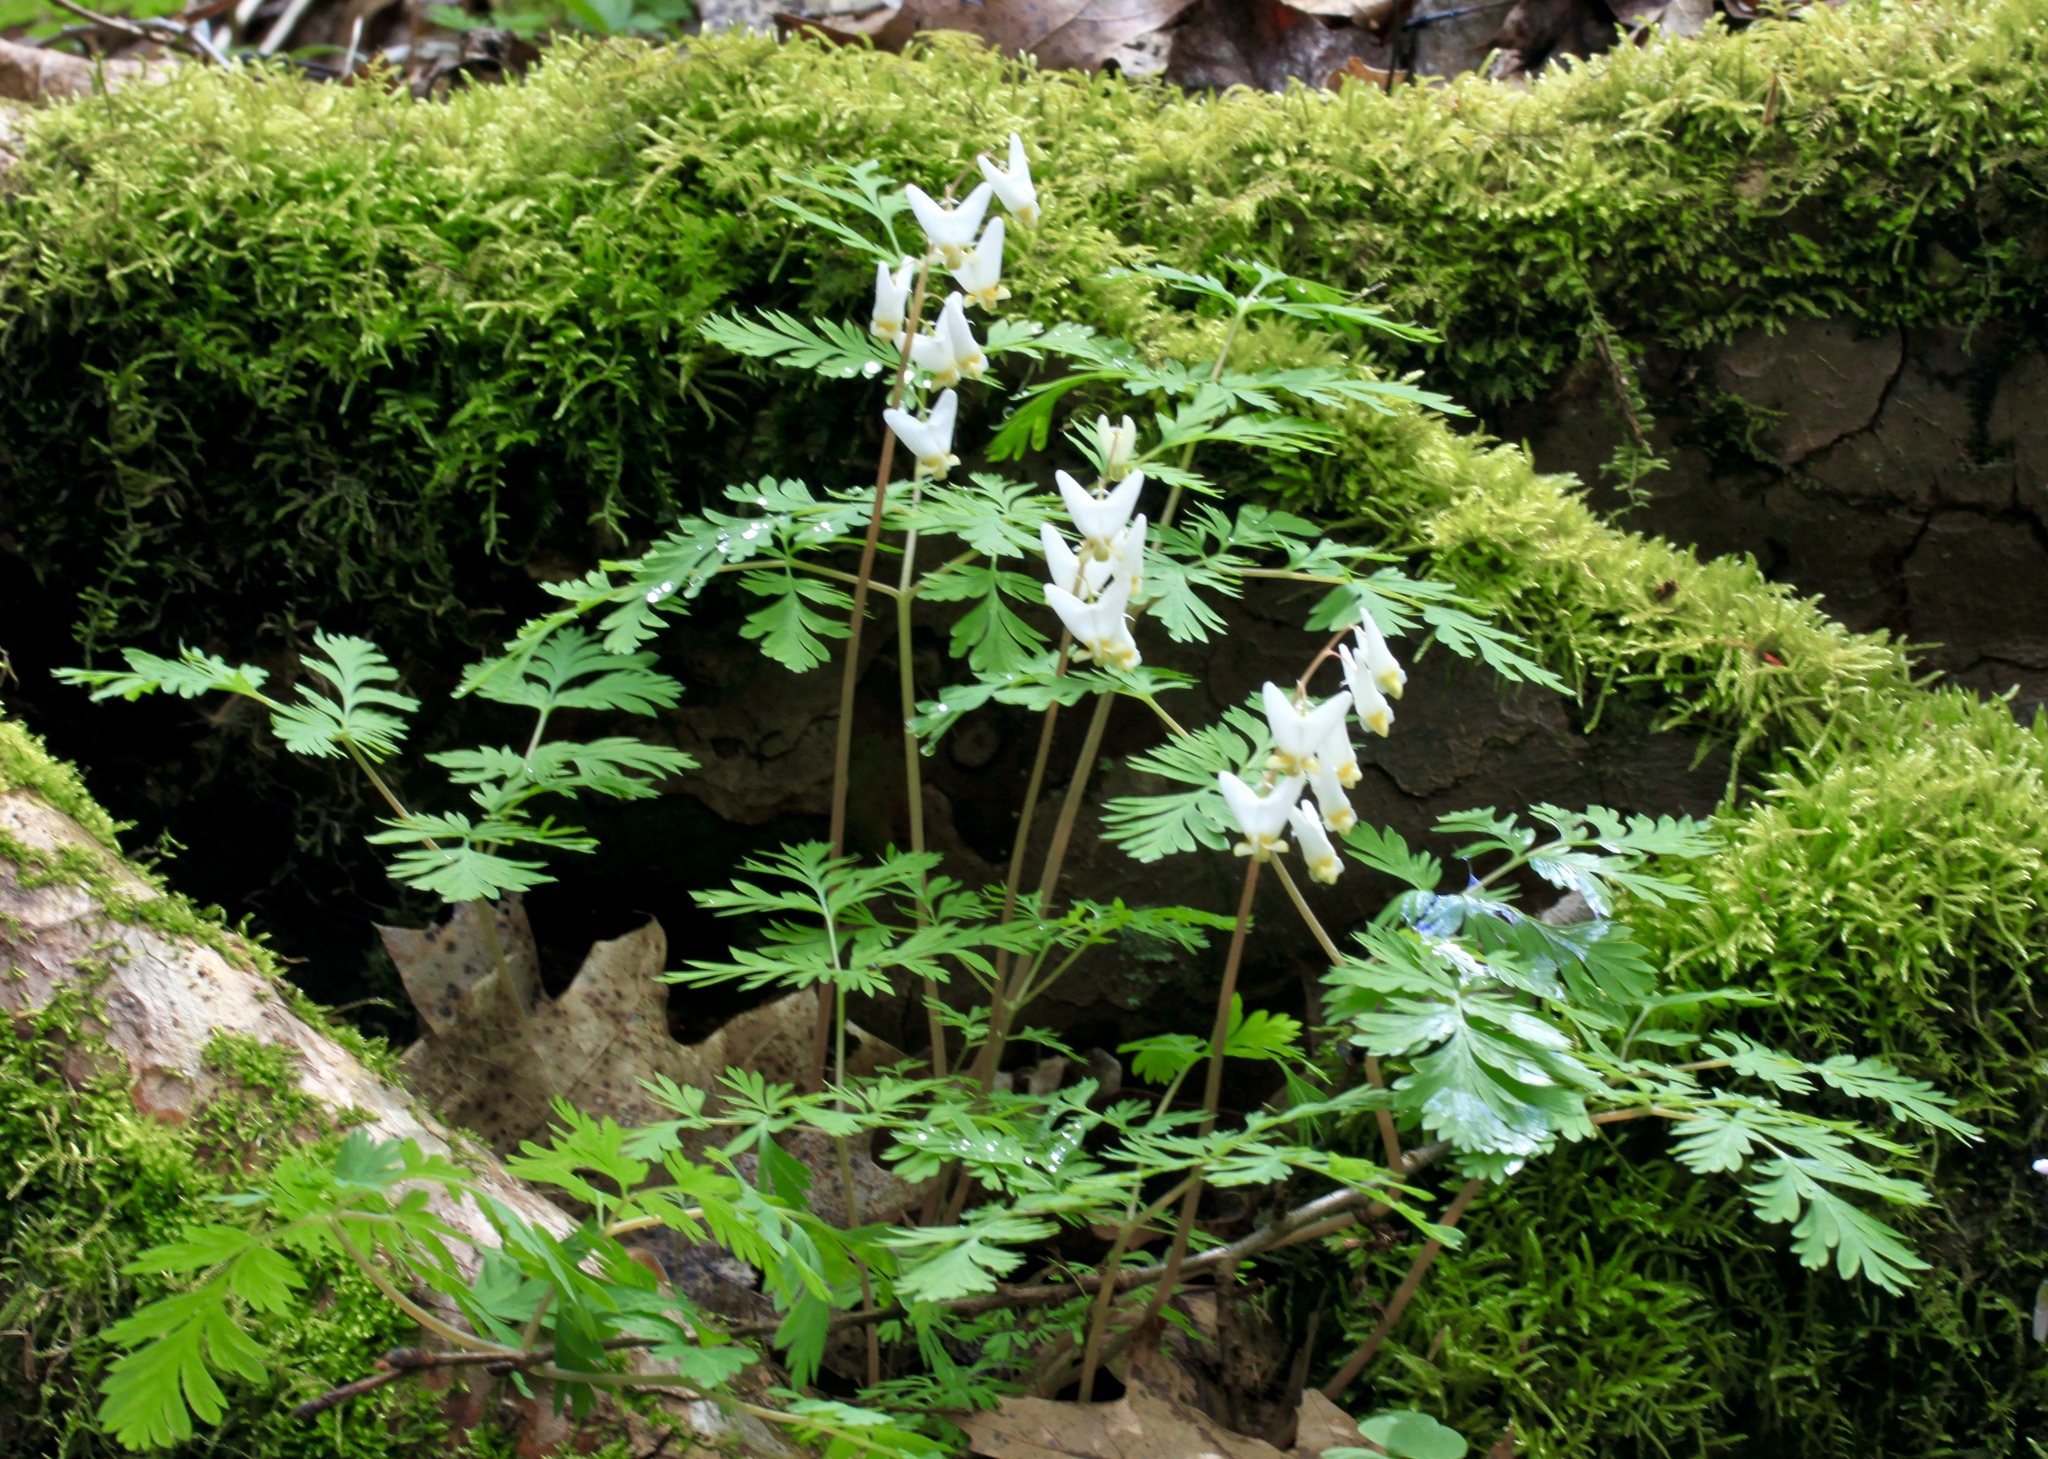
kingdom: Plantae
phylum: Tracheophyta
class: Magnoliopsida
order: Ranunculales
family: Papaveraceae
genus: Dicentra
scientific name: Dicentra cucullaria
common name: Dutchman's breeches
